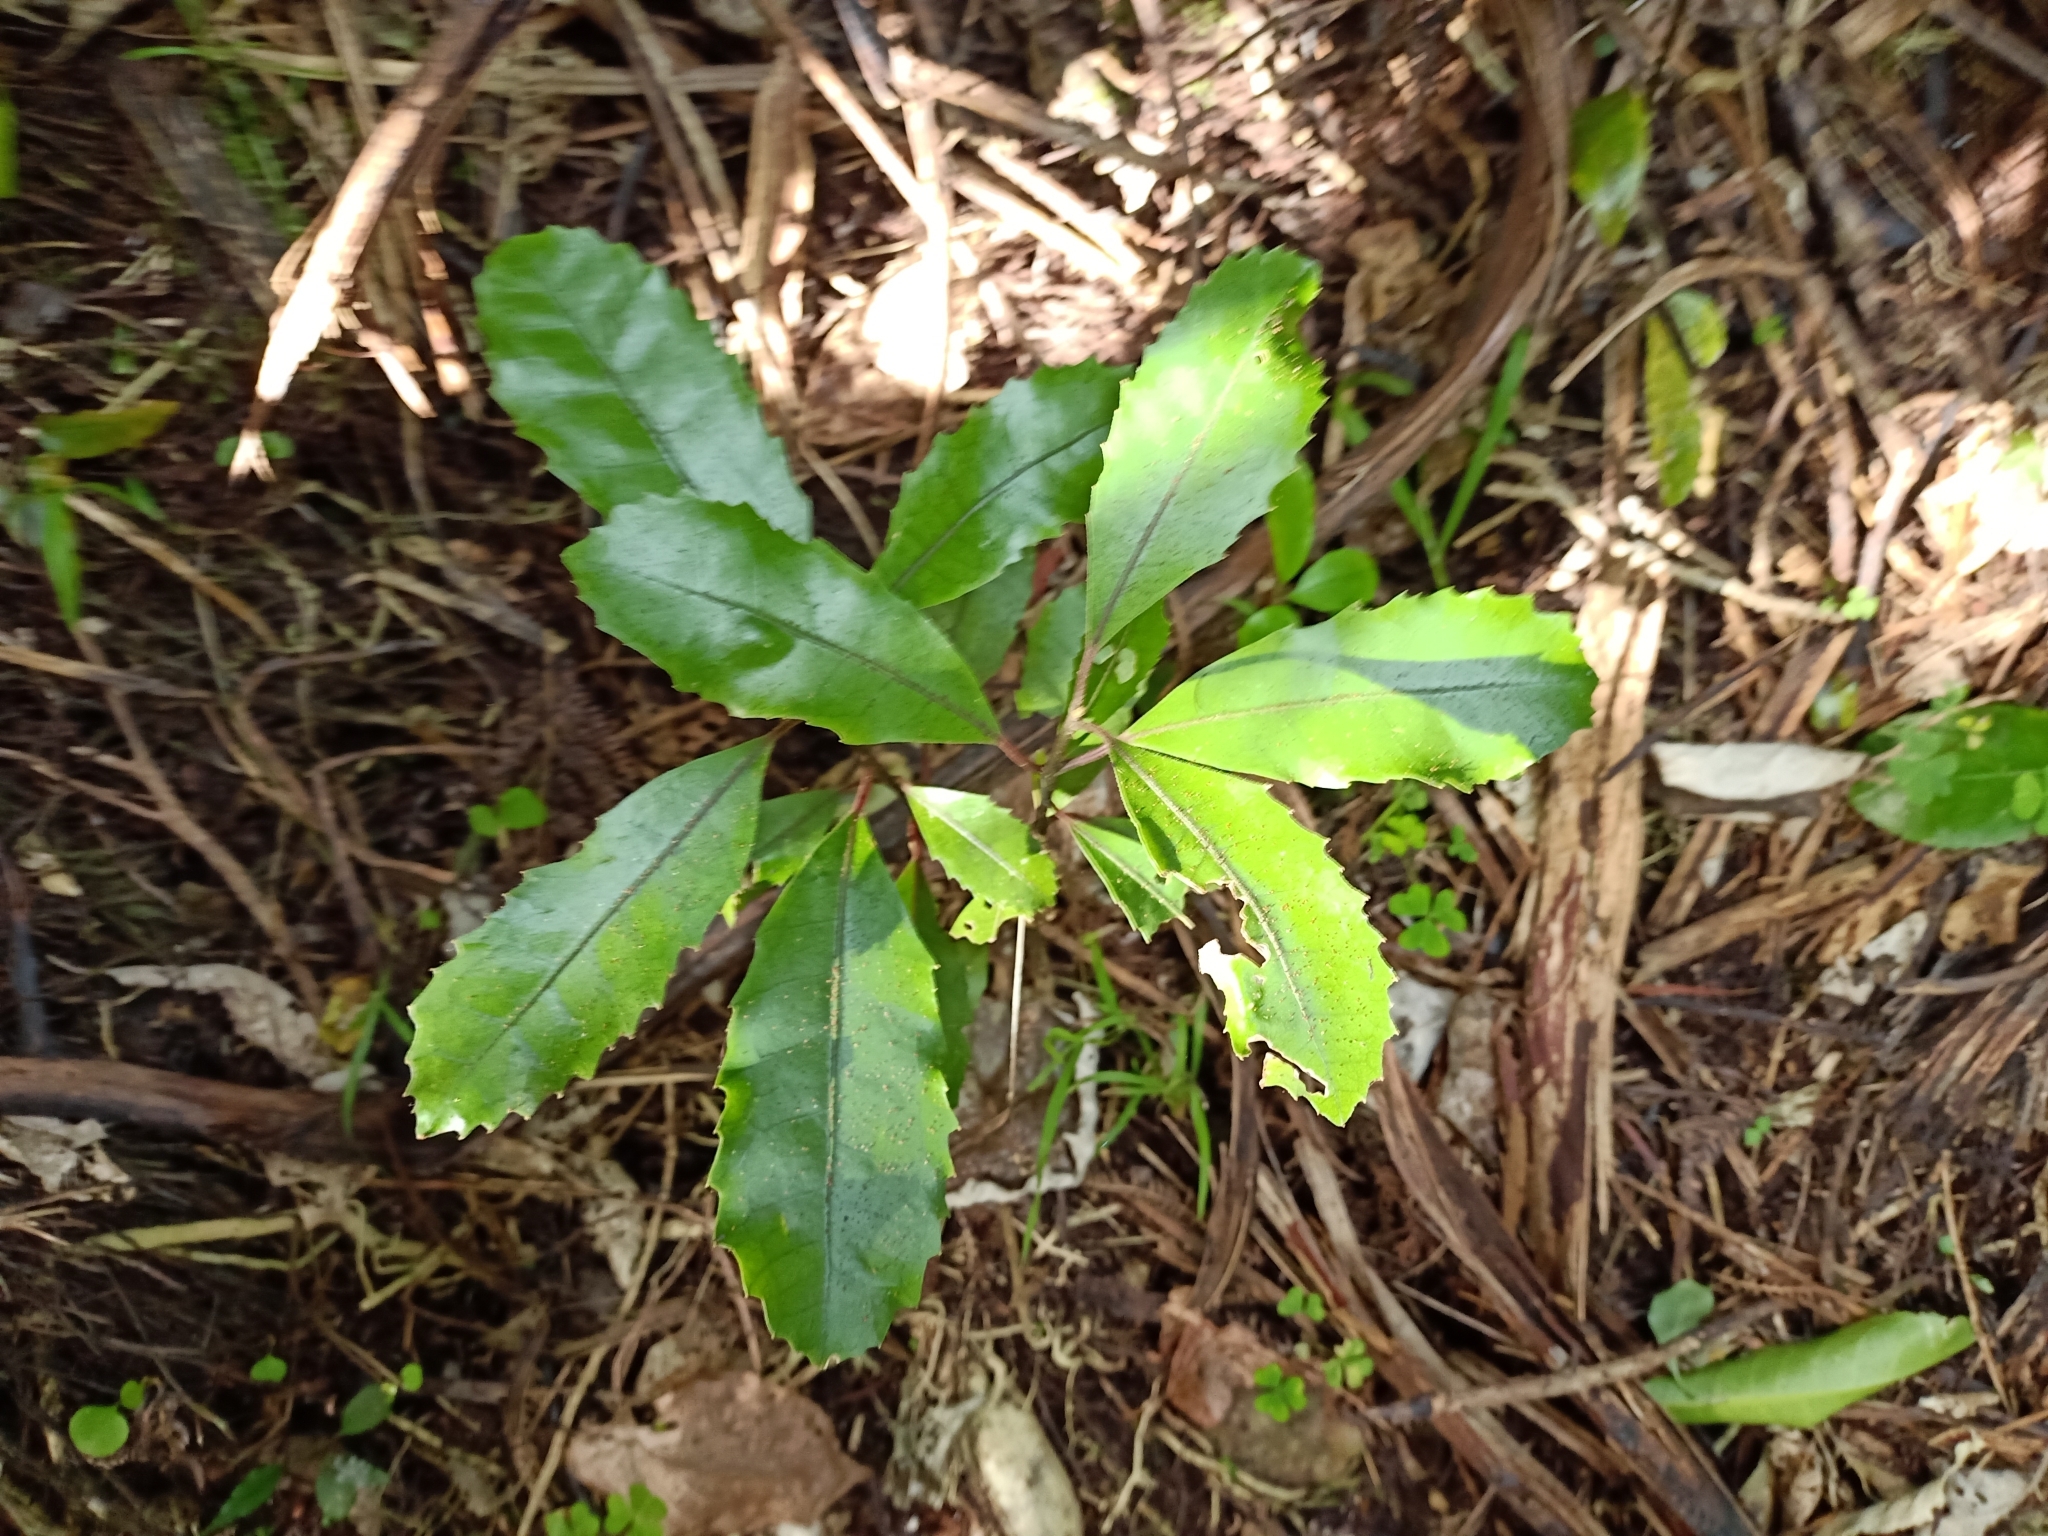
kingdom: Plantae
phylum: Tracheophyta
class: Magnoliopsida
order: Laurales
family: Monimiaceae
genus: Hedycarya
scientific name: Hedycarya arborea
